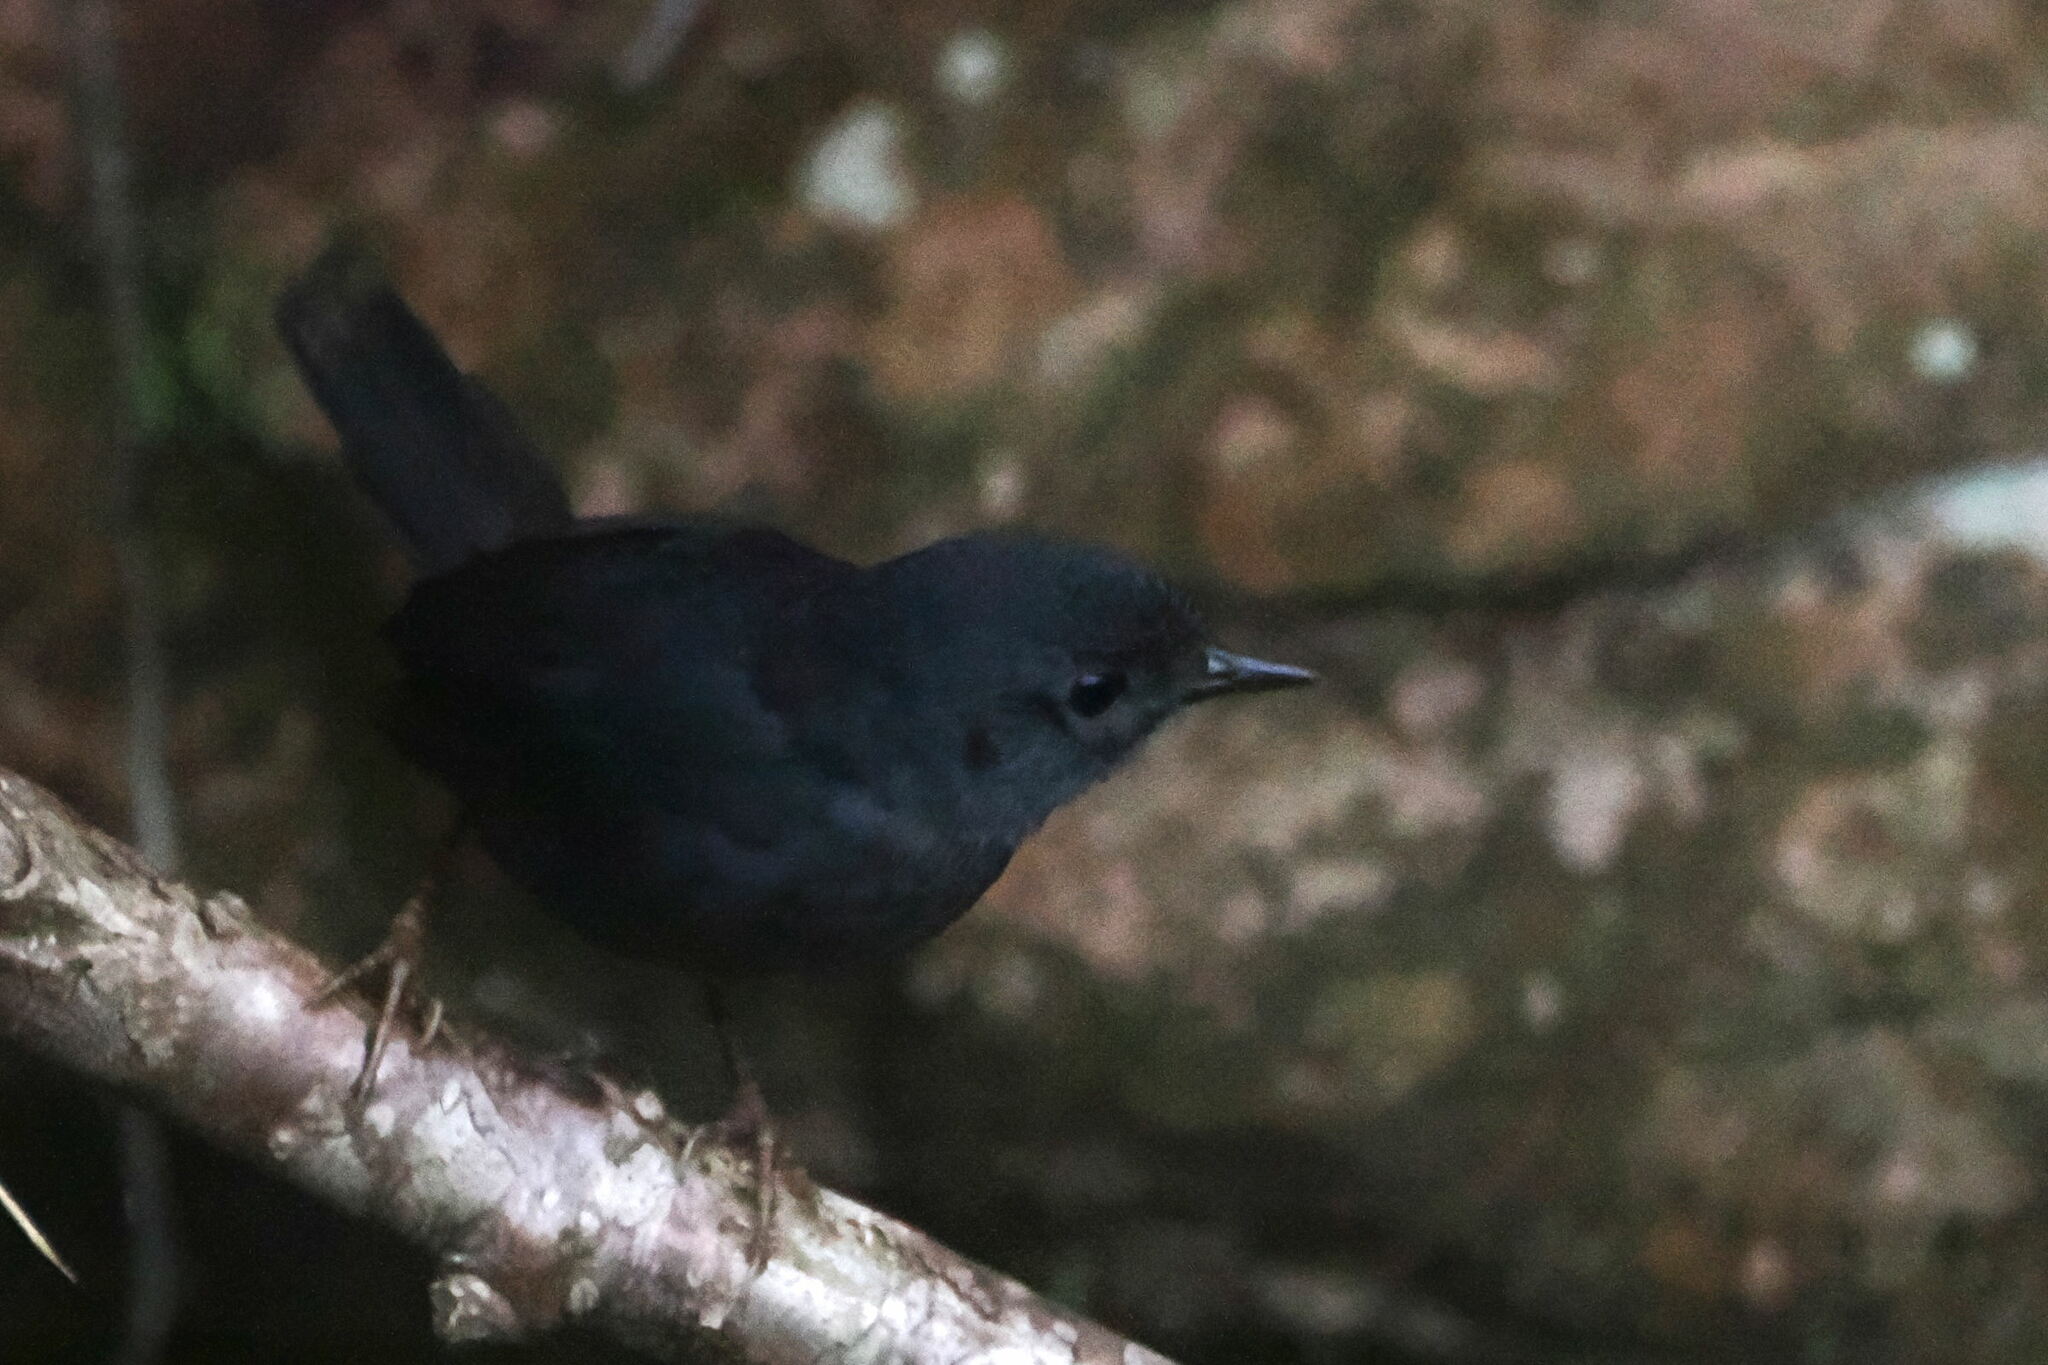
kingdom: Animalia
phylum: Chordata
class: Aves
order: Passeriformes
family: Rhinocryptidae
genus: Scytalopus
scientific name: Scytalopus diamantinensis
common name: Diamantina tapaculo
